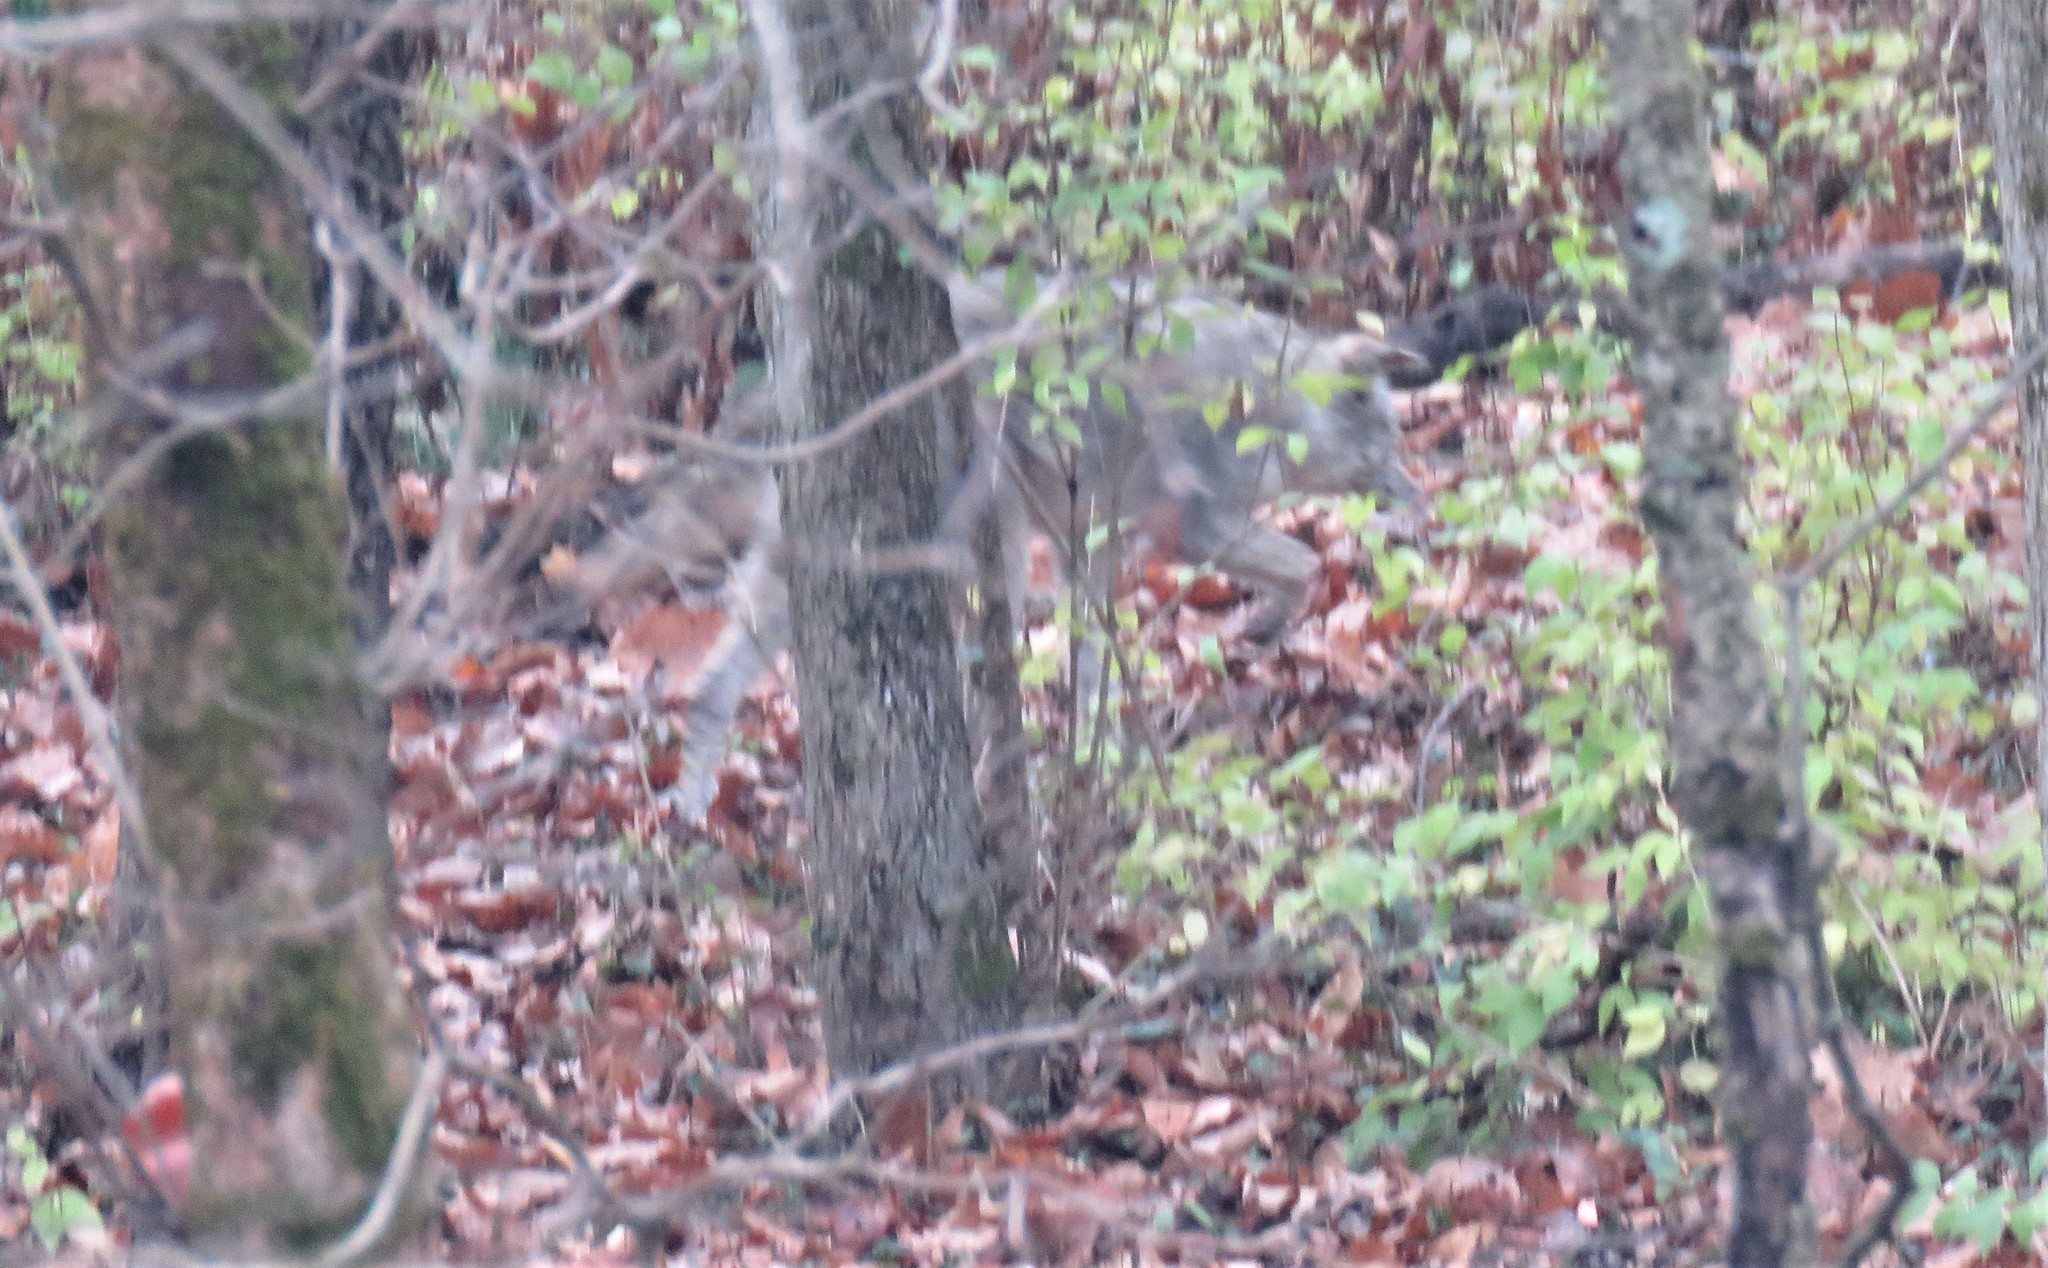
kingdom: Animalia
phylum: Chordata
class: Mammalia
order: Carnivora
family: Canidae
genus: Canis
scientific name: Canis latrans
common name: Coyote
